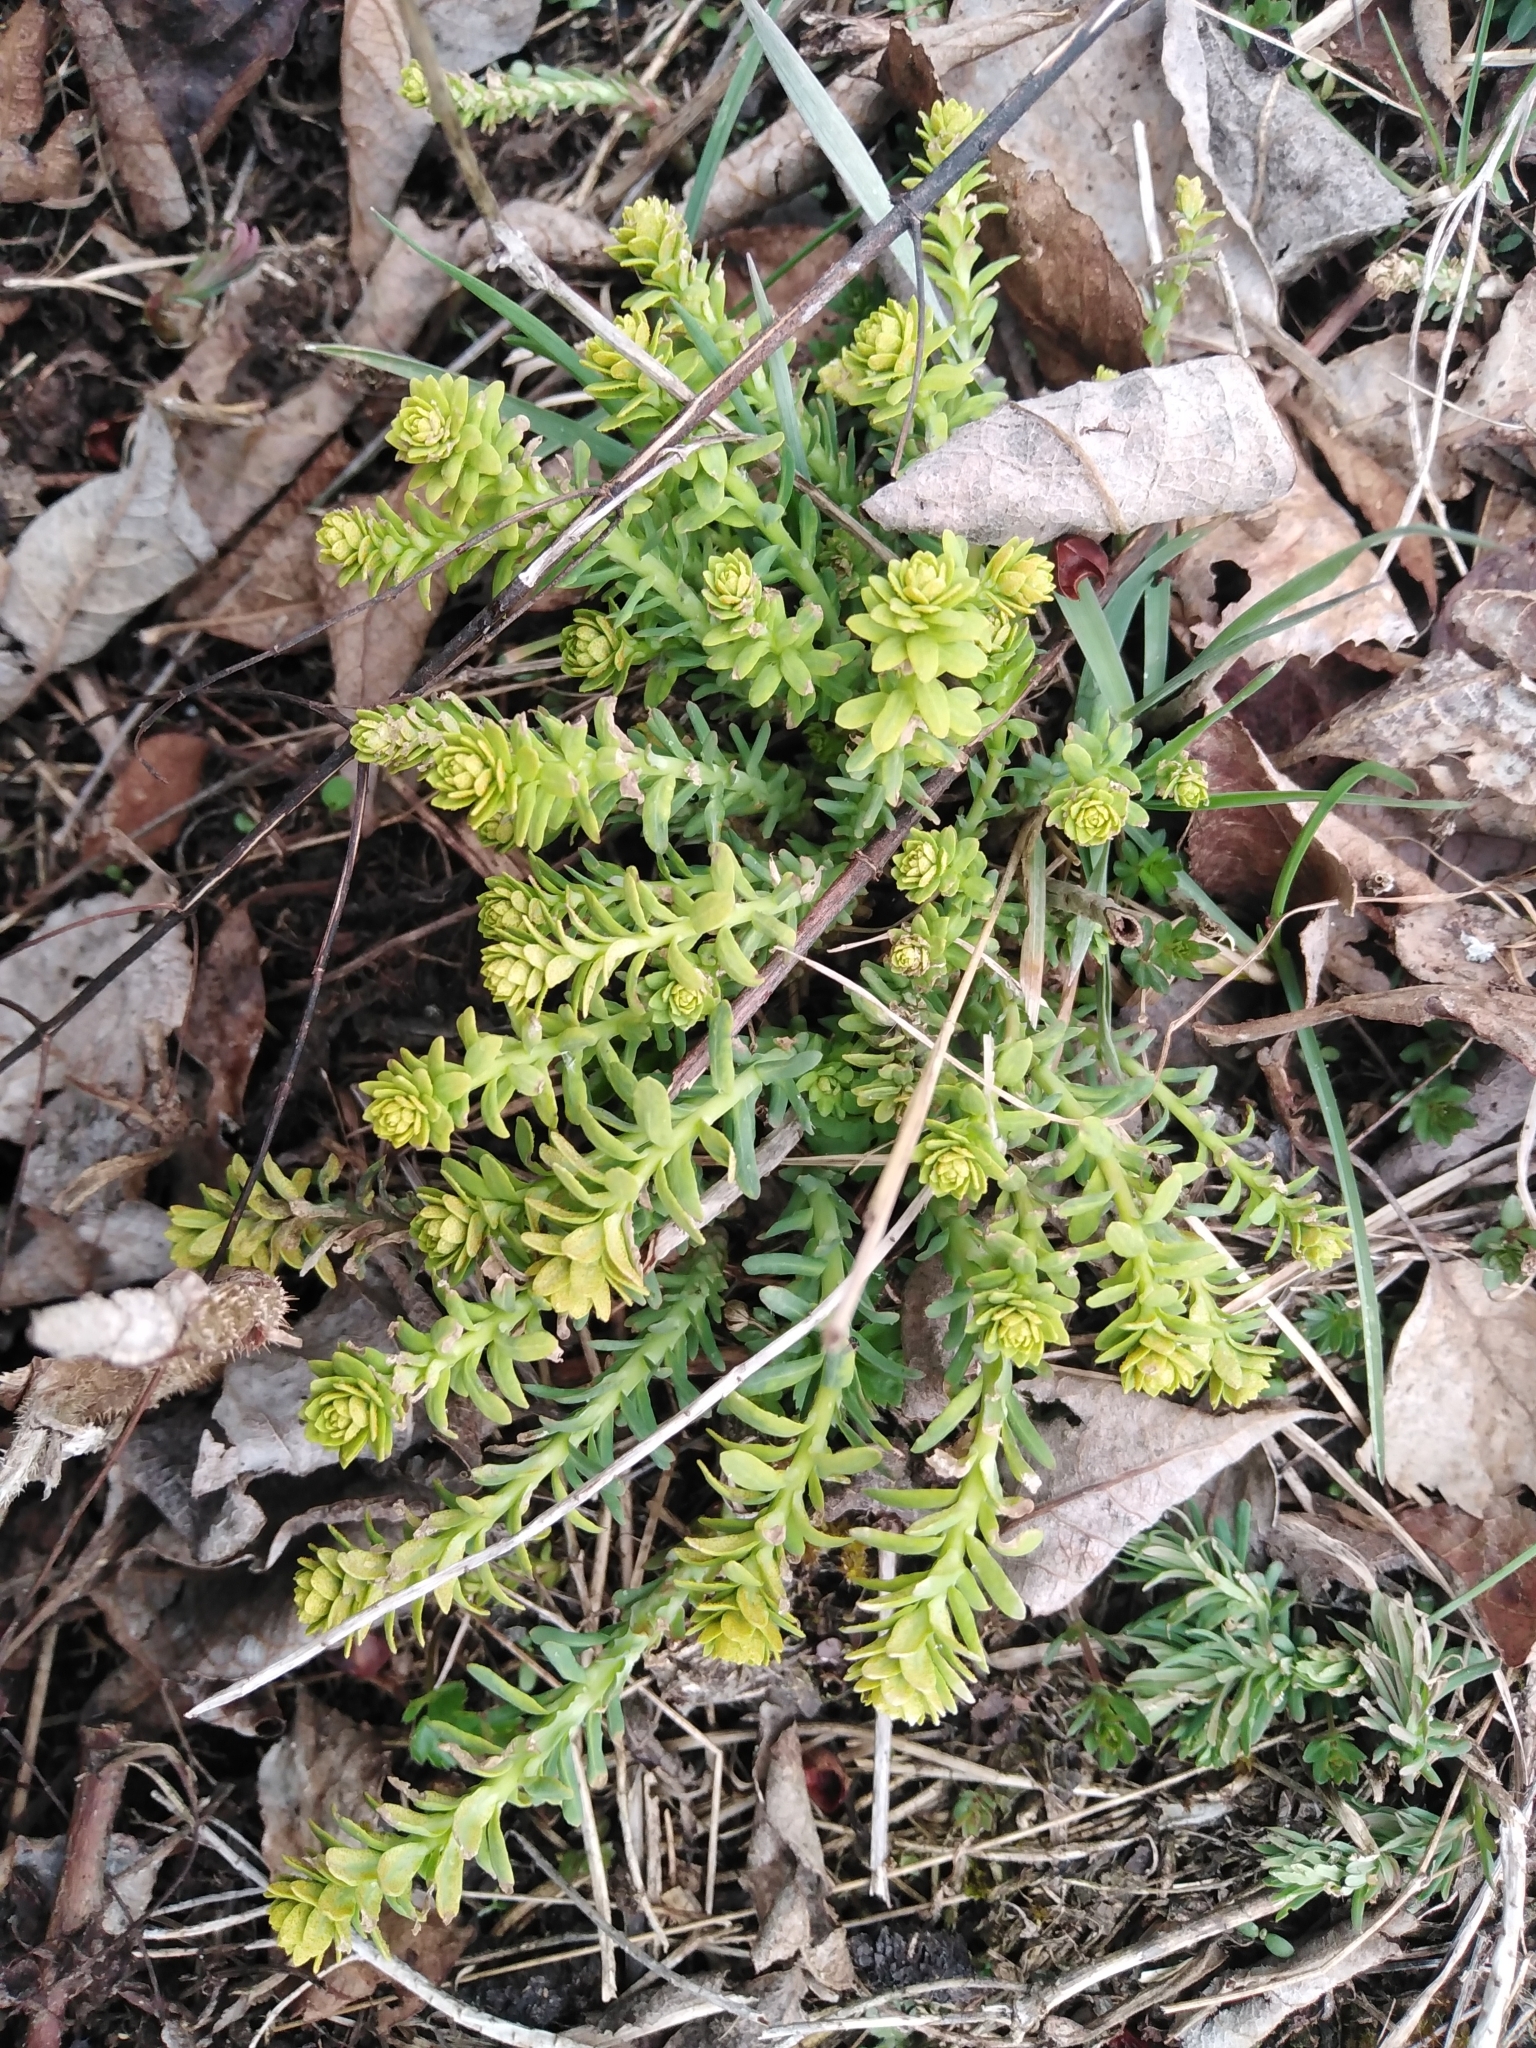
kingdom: Plantae
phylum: Tracheophyta
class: Magnoliopsida
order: Malpighiales
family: Euphorbiaceae
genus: Euphorbia
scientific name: Euphorbia cyparissias
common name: Cypress spurge
